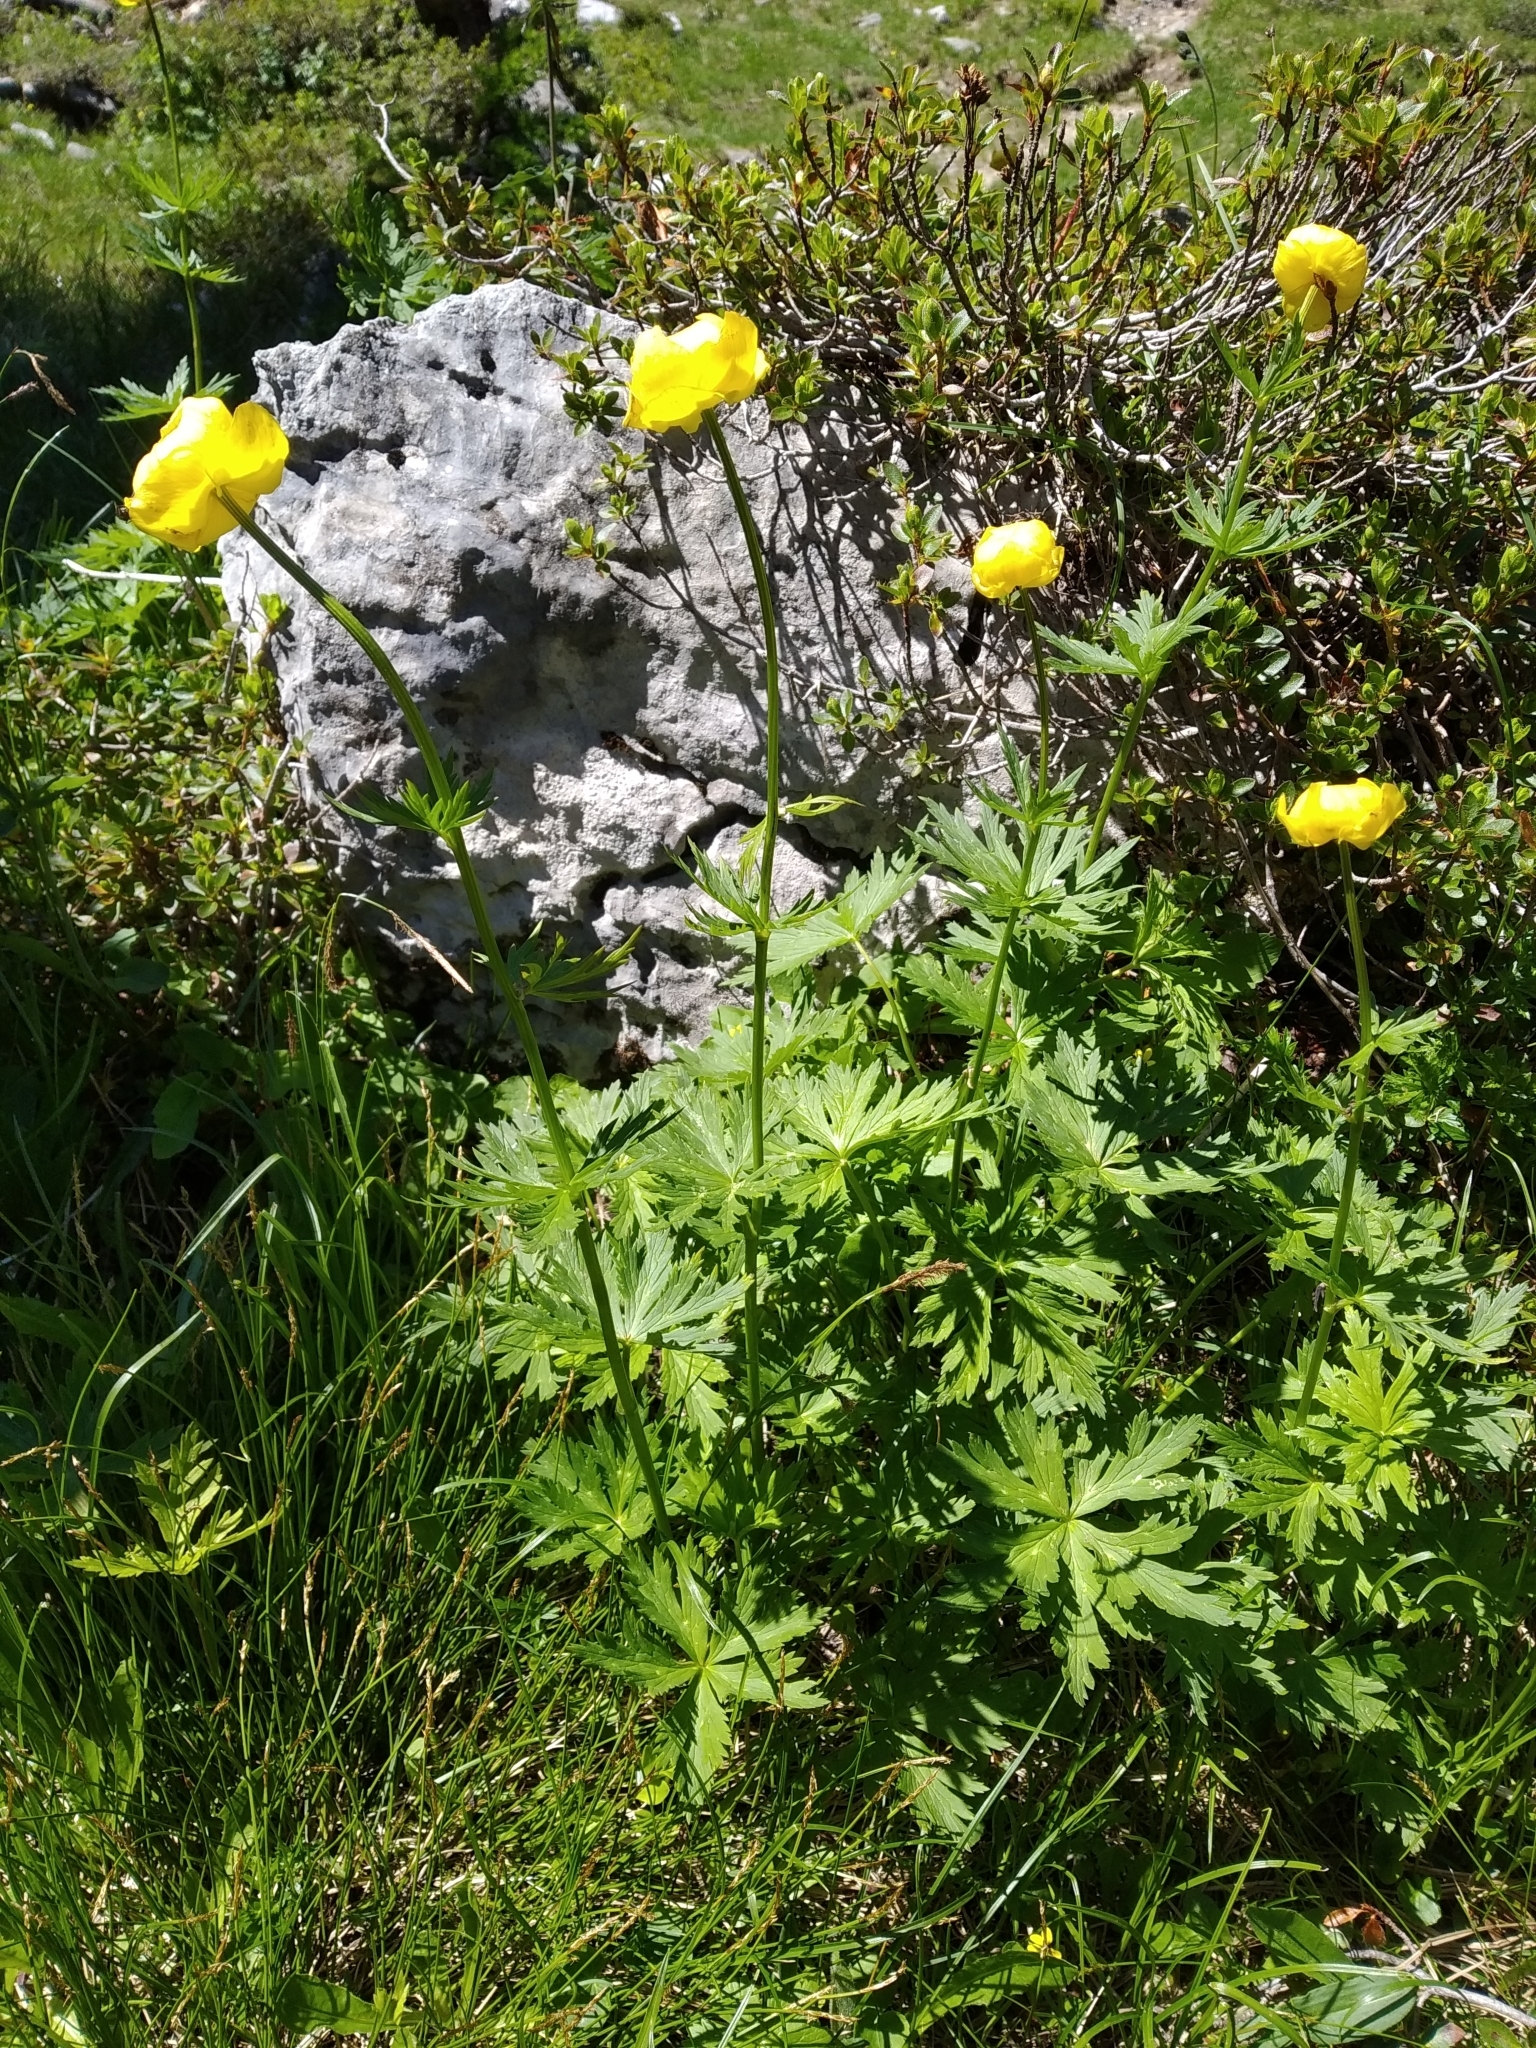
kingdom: Plantae
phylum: Tracheophyta
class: Magnoliopsida
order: Ranunculales
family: Ranunculaceae
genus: Trollius
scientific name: Trollius europaeus
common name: European globeflower
